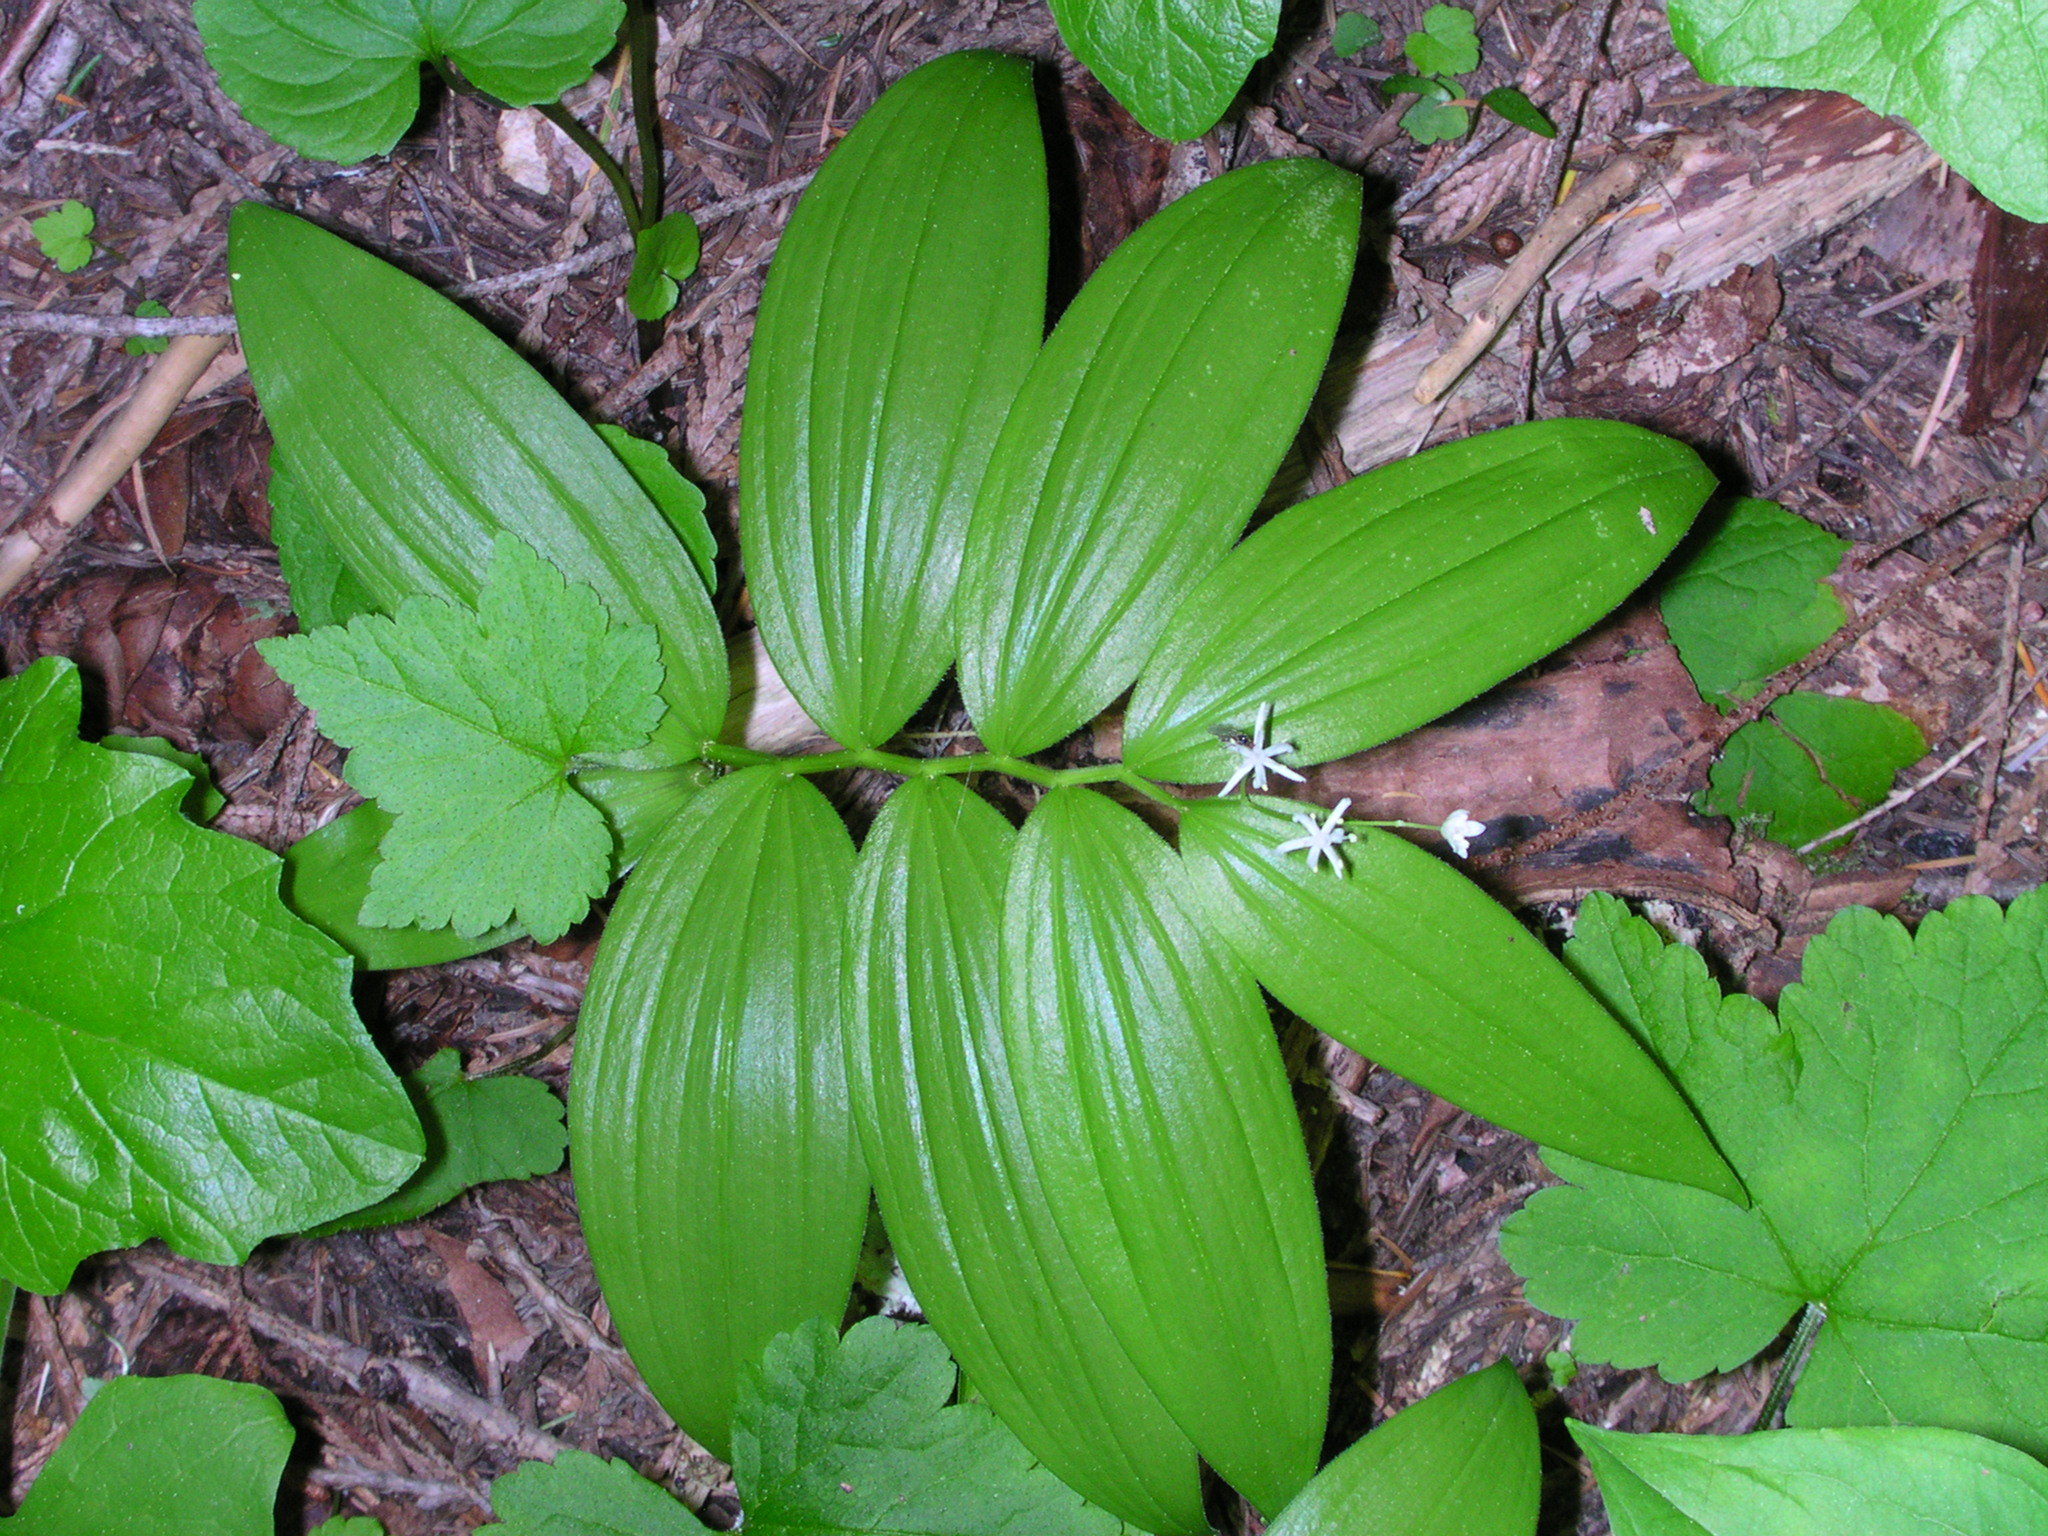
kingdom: Plantae
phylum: Tracheophyta
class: Liliopsida
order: Asparagales
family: Asparagaceae
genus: Maianthemum
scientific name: Maianthemum stellatum
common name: Little false solomon's seal
